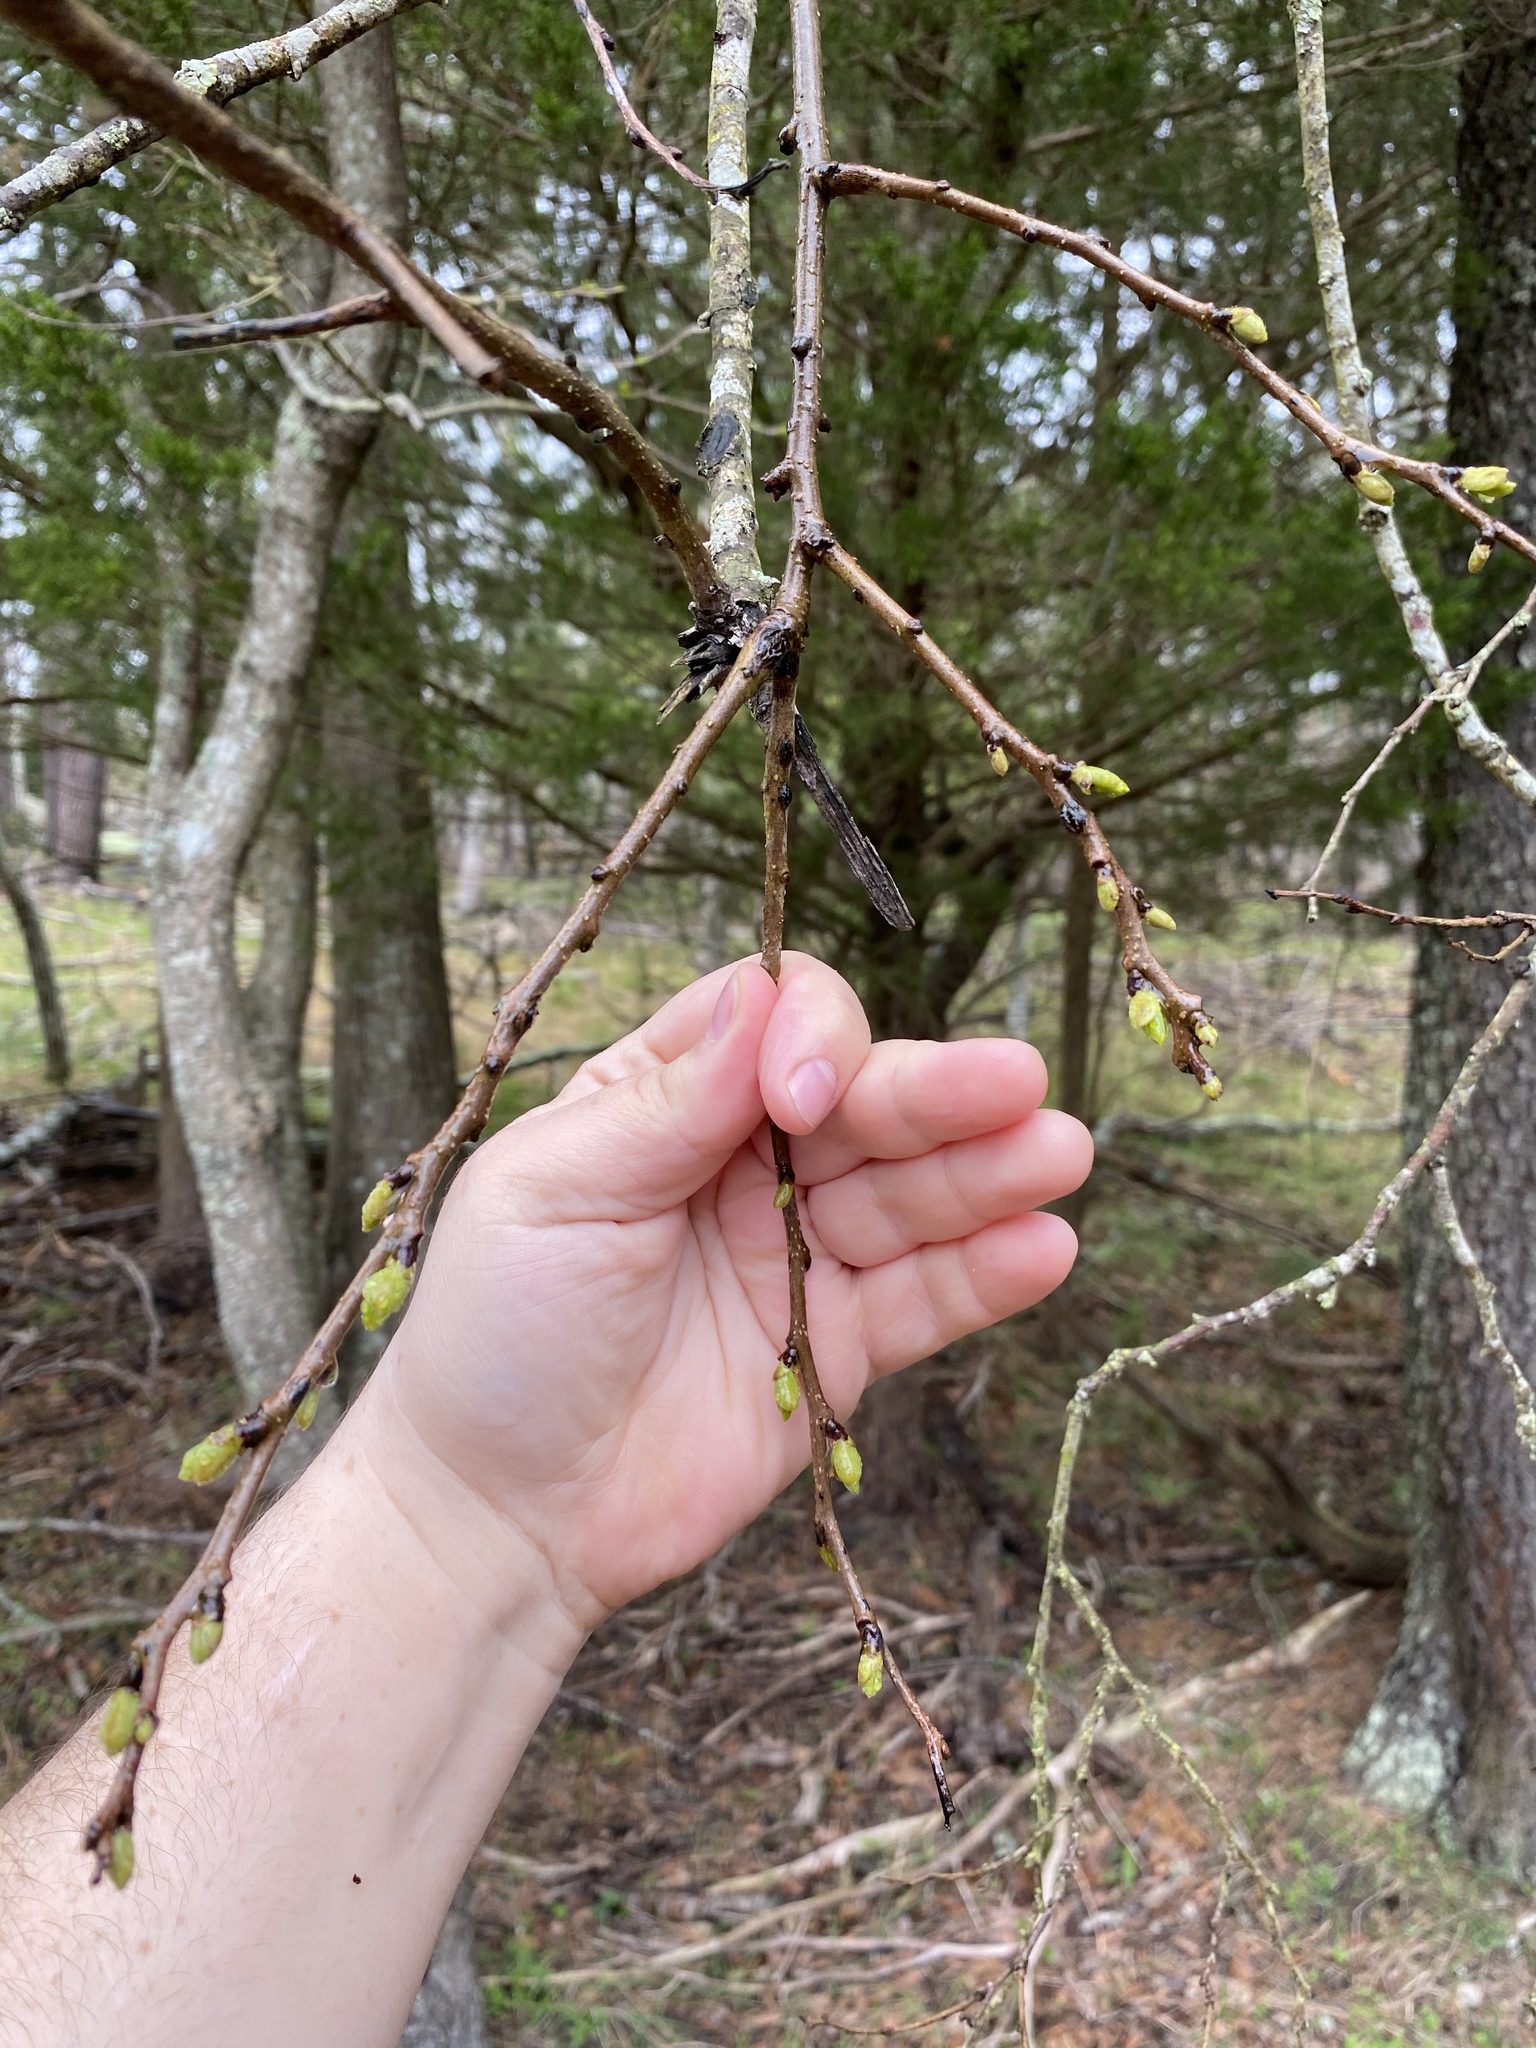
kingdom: Plantae
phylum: Tracheophyta
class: Magnoliopsida
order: Ericales
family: Ebenaceae
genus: Diospyros
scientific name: Diospyros virginiana
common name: Persimmon
